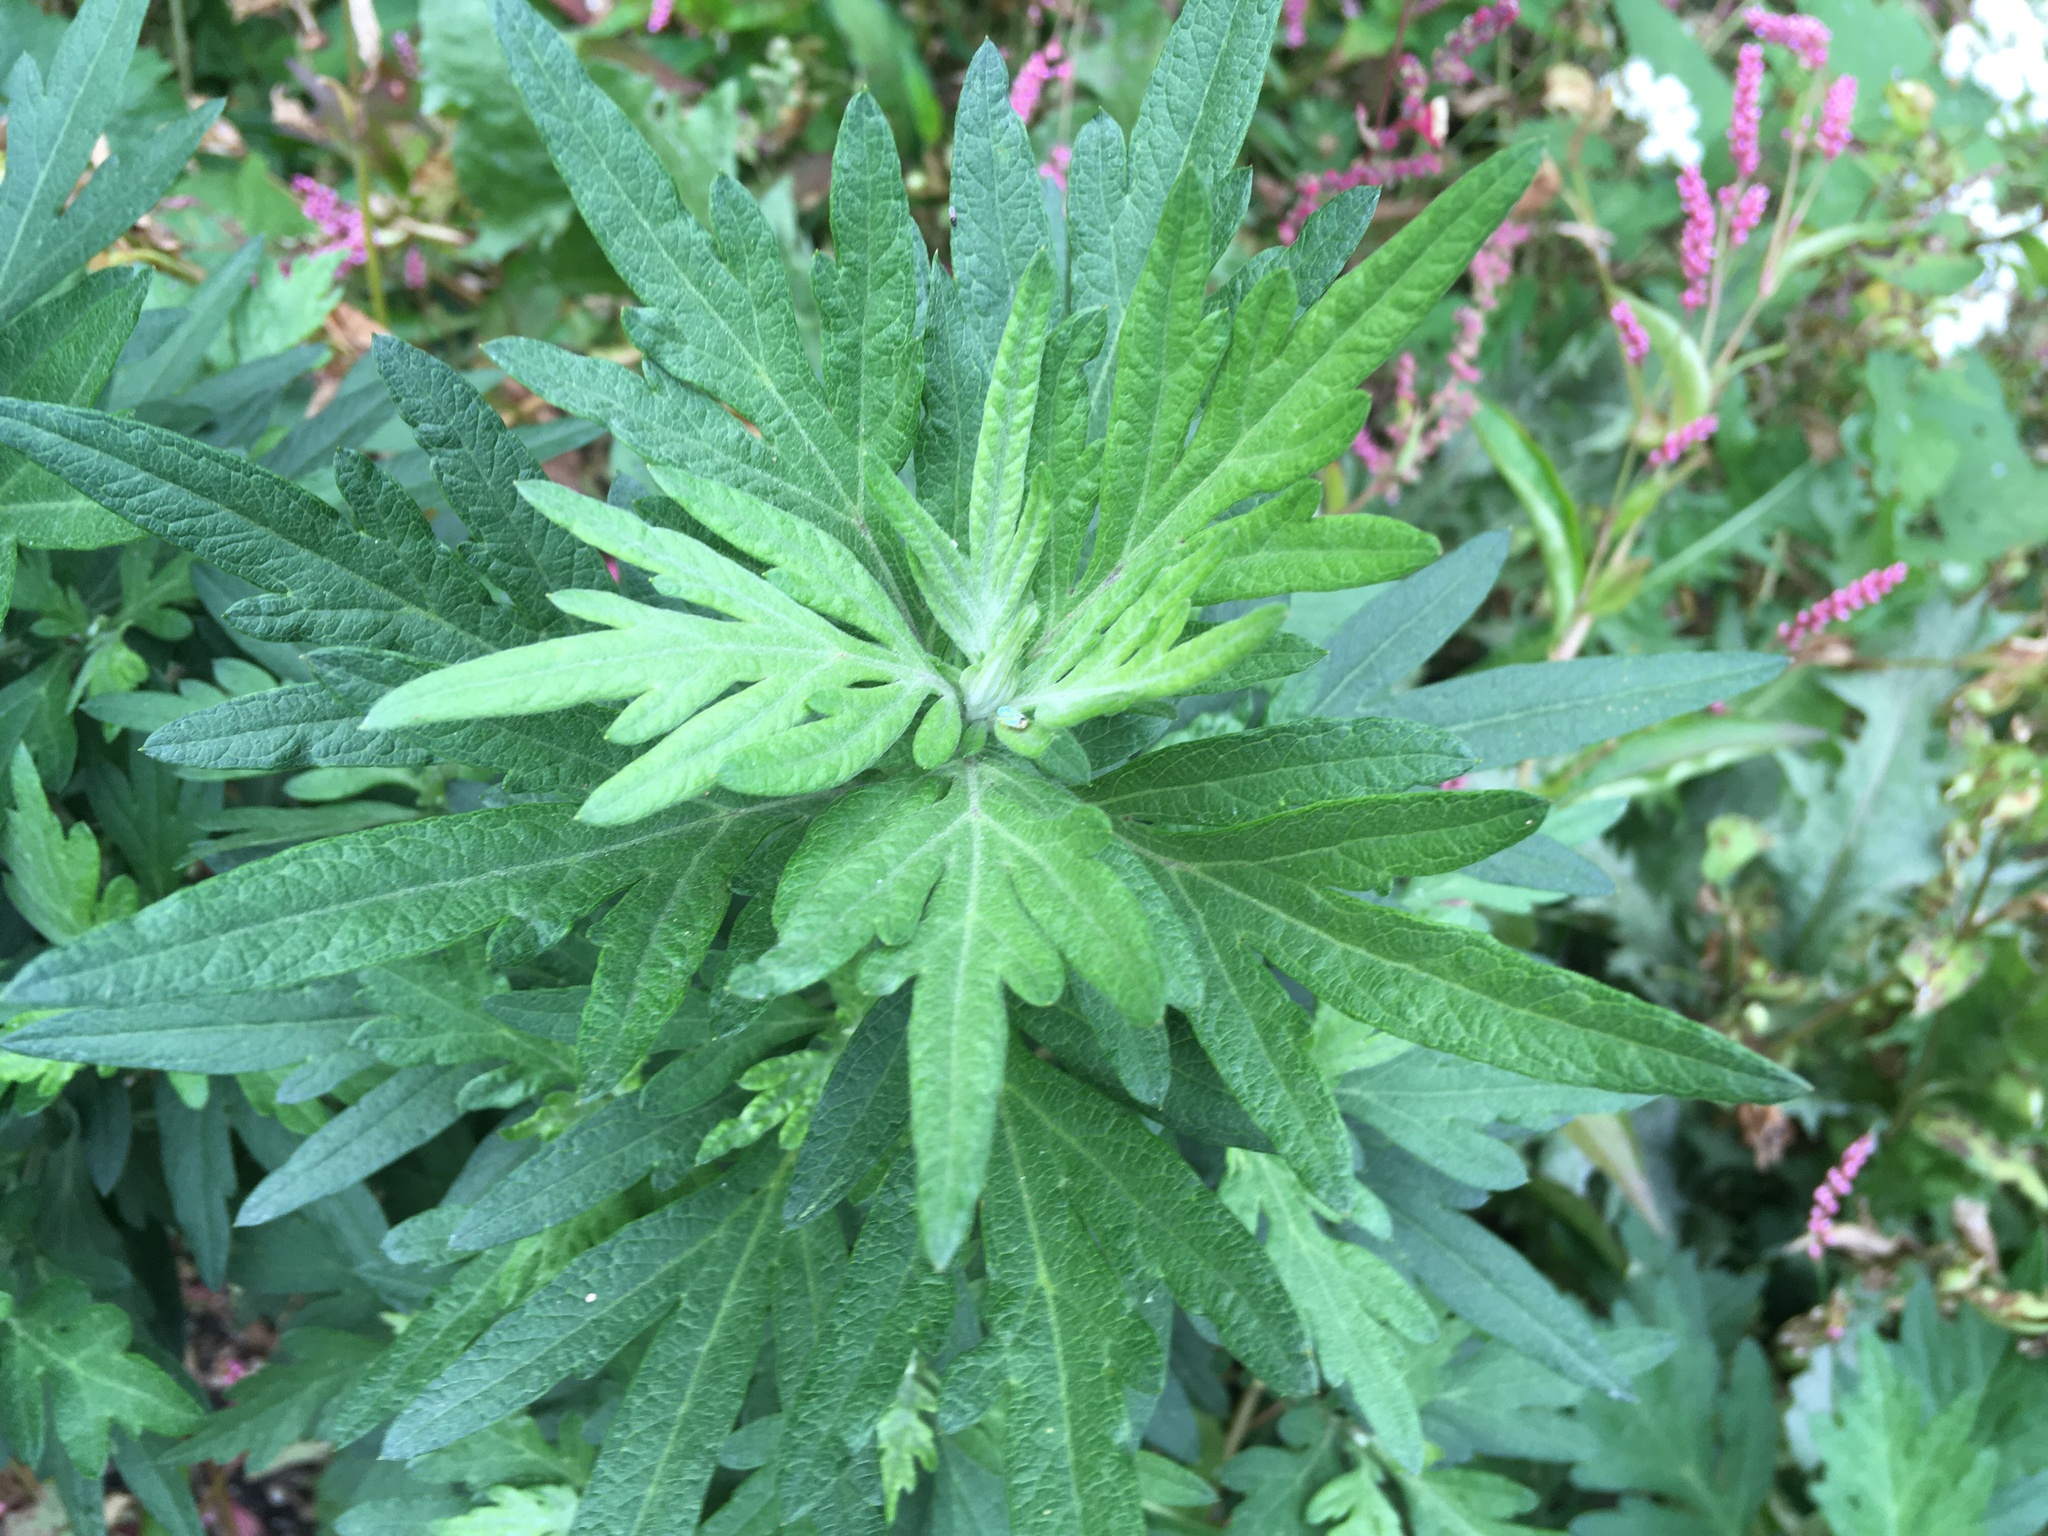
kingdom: Plantae
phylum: Tracheophyta
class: Magnoliopsida
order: Asterales
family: Asteraceae
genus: Artemisia
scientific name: Artemisia vulgaris
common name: Mugwort
